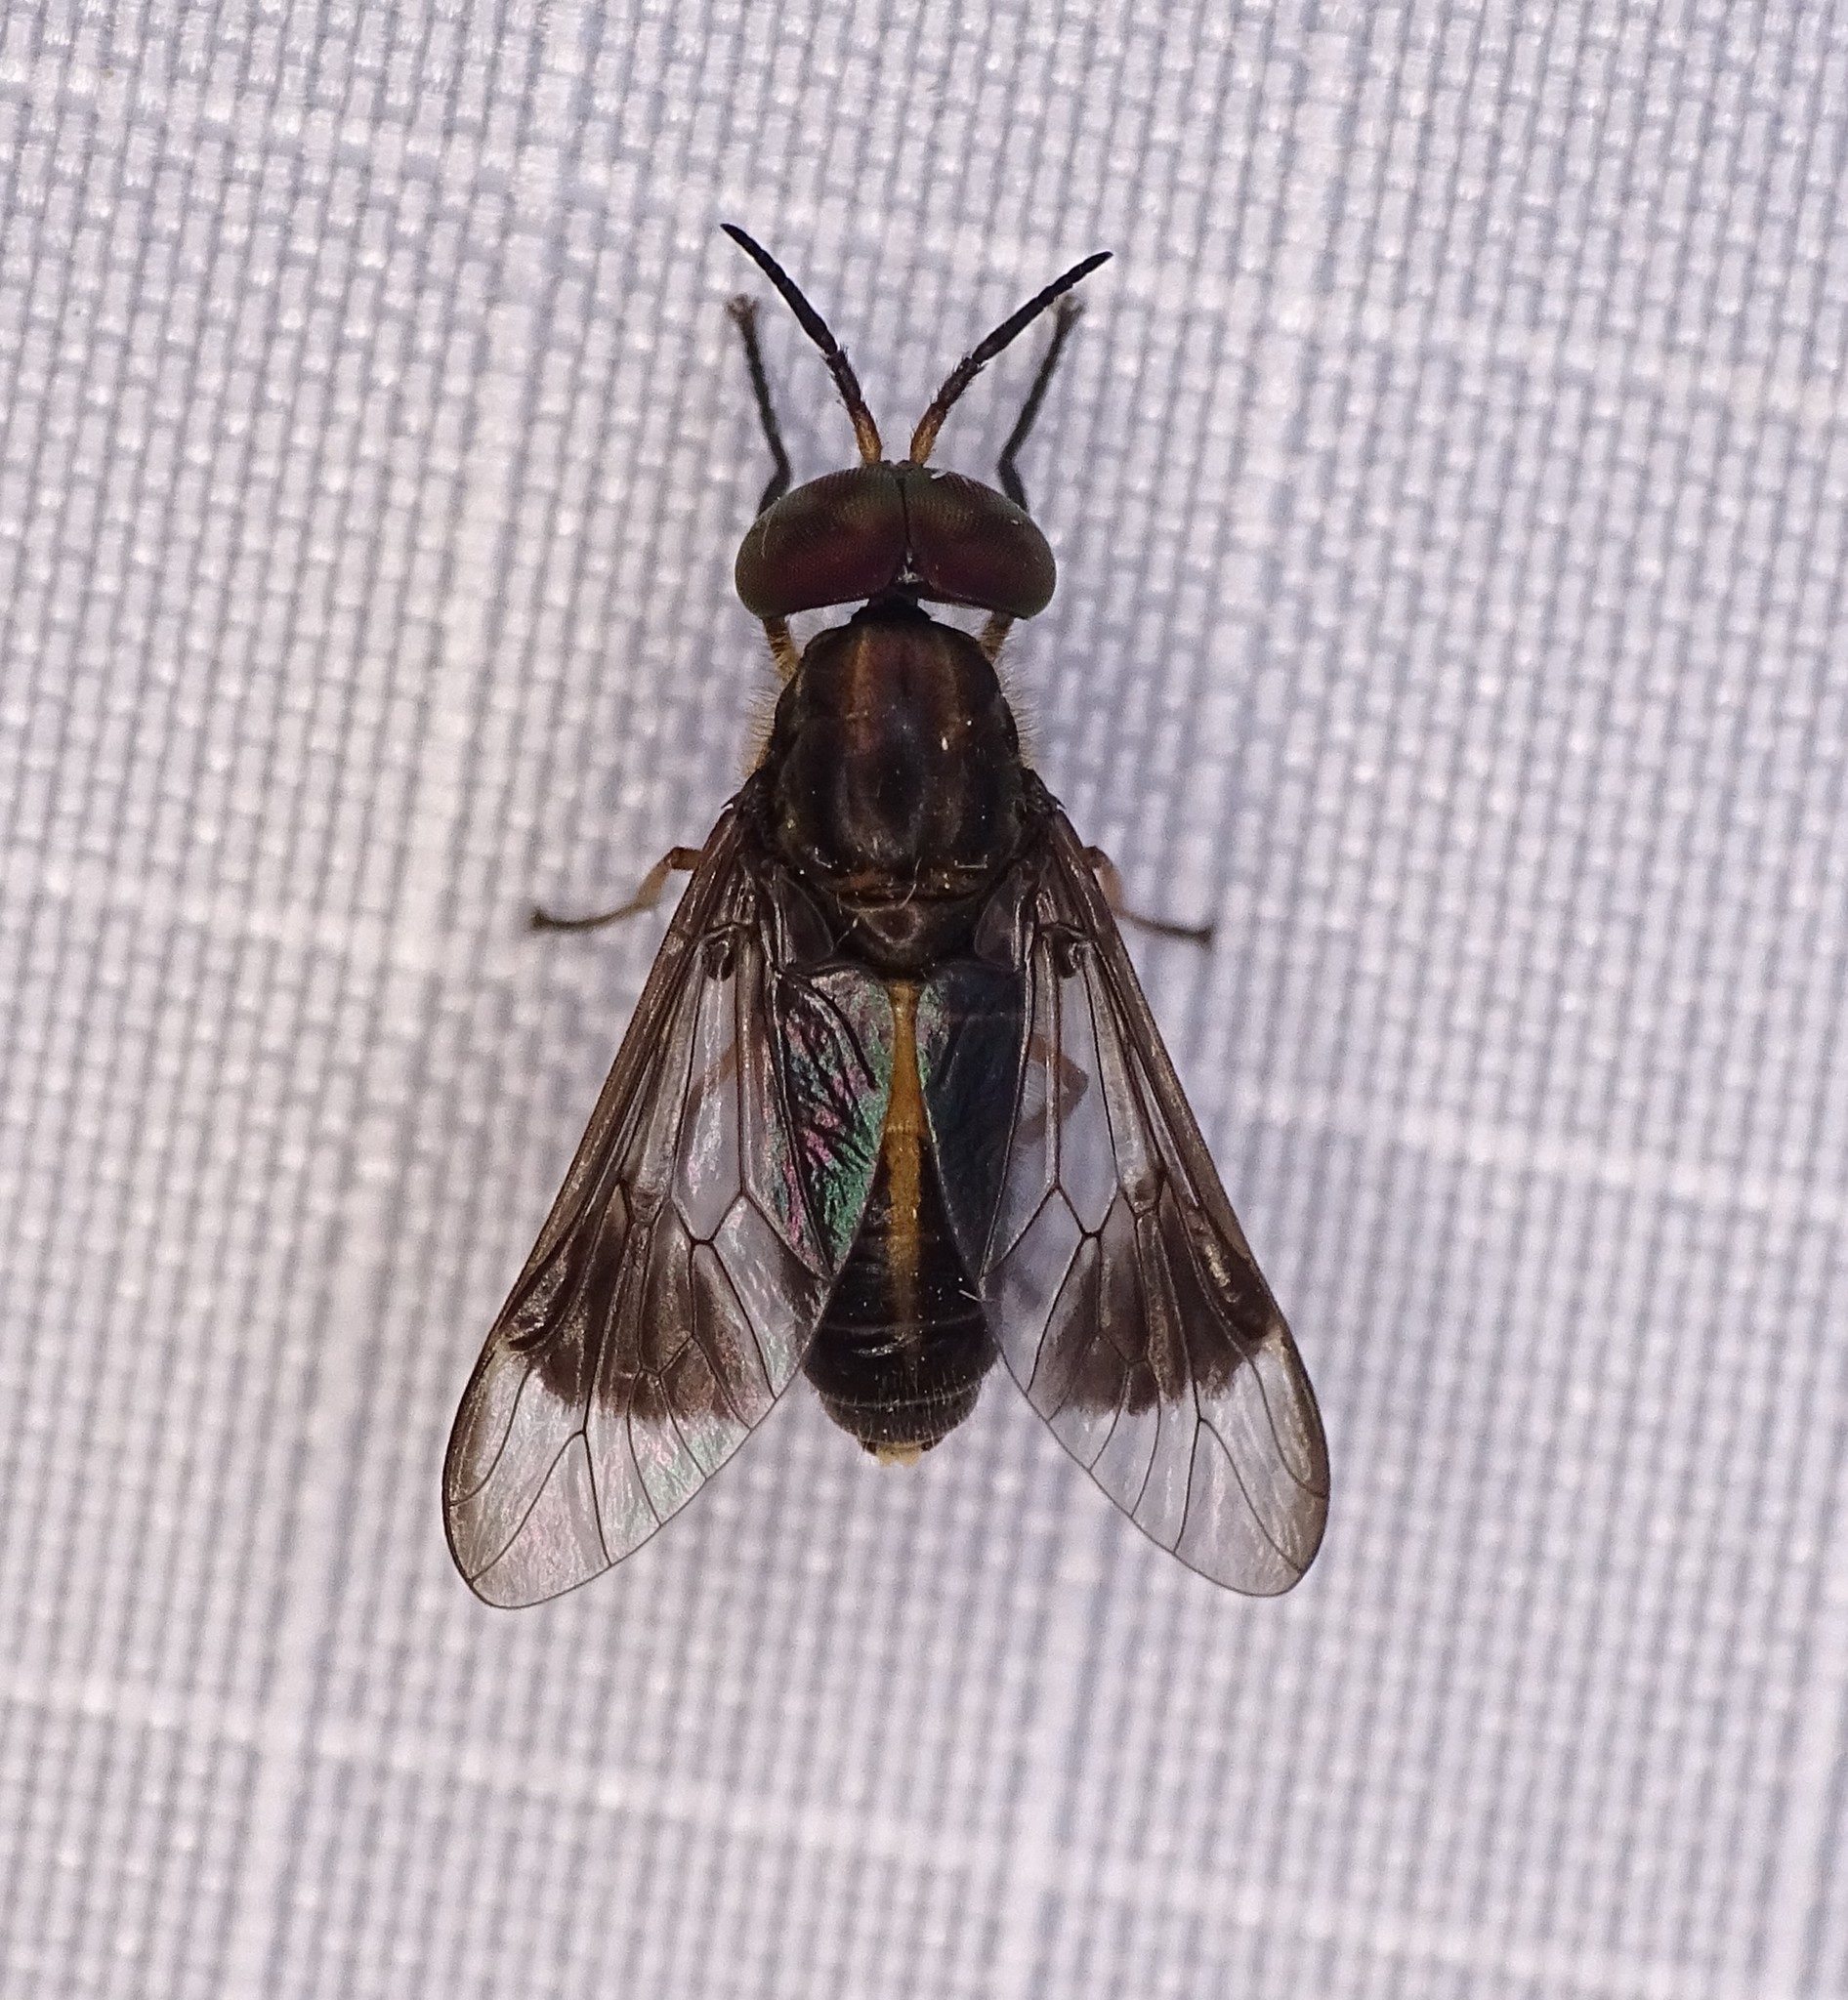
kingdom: Animalia
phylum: Arthropoda
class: Insecta
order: Diptera
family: Tabanidae
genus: Chrysops
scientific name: Chrysops univittatus
